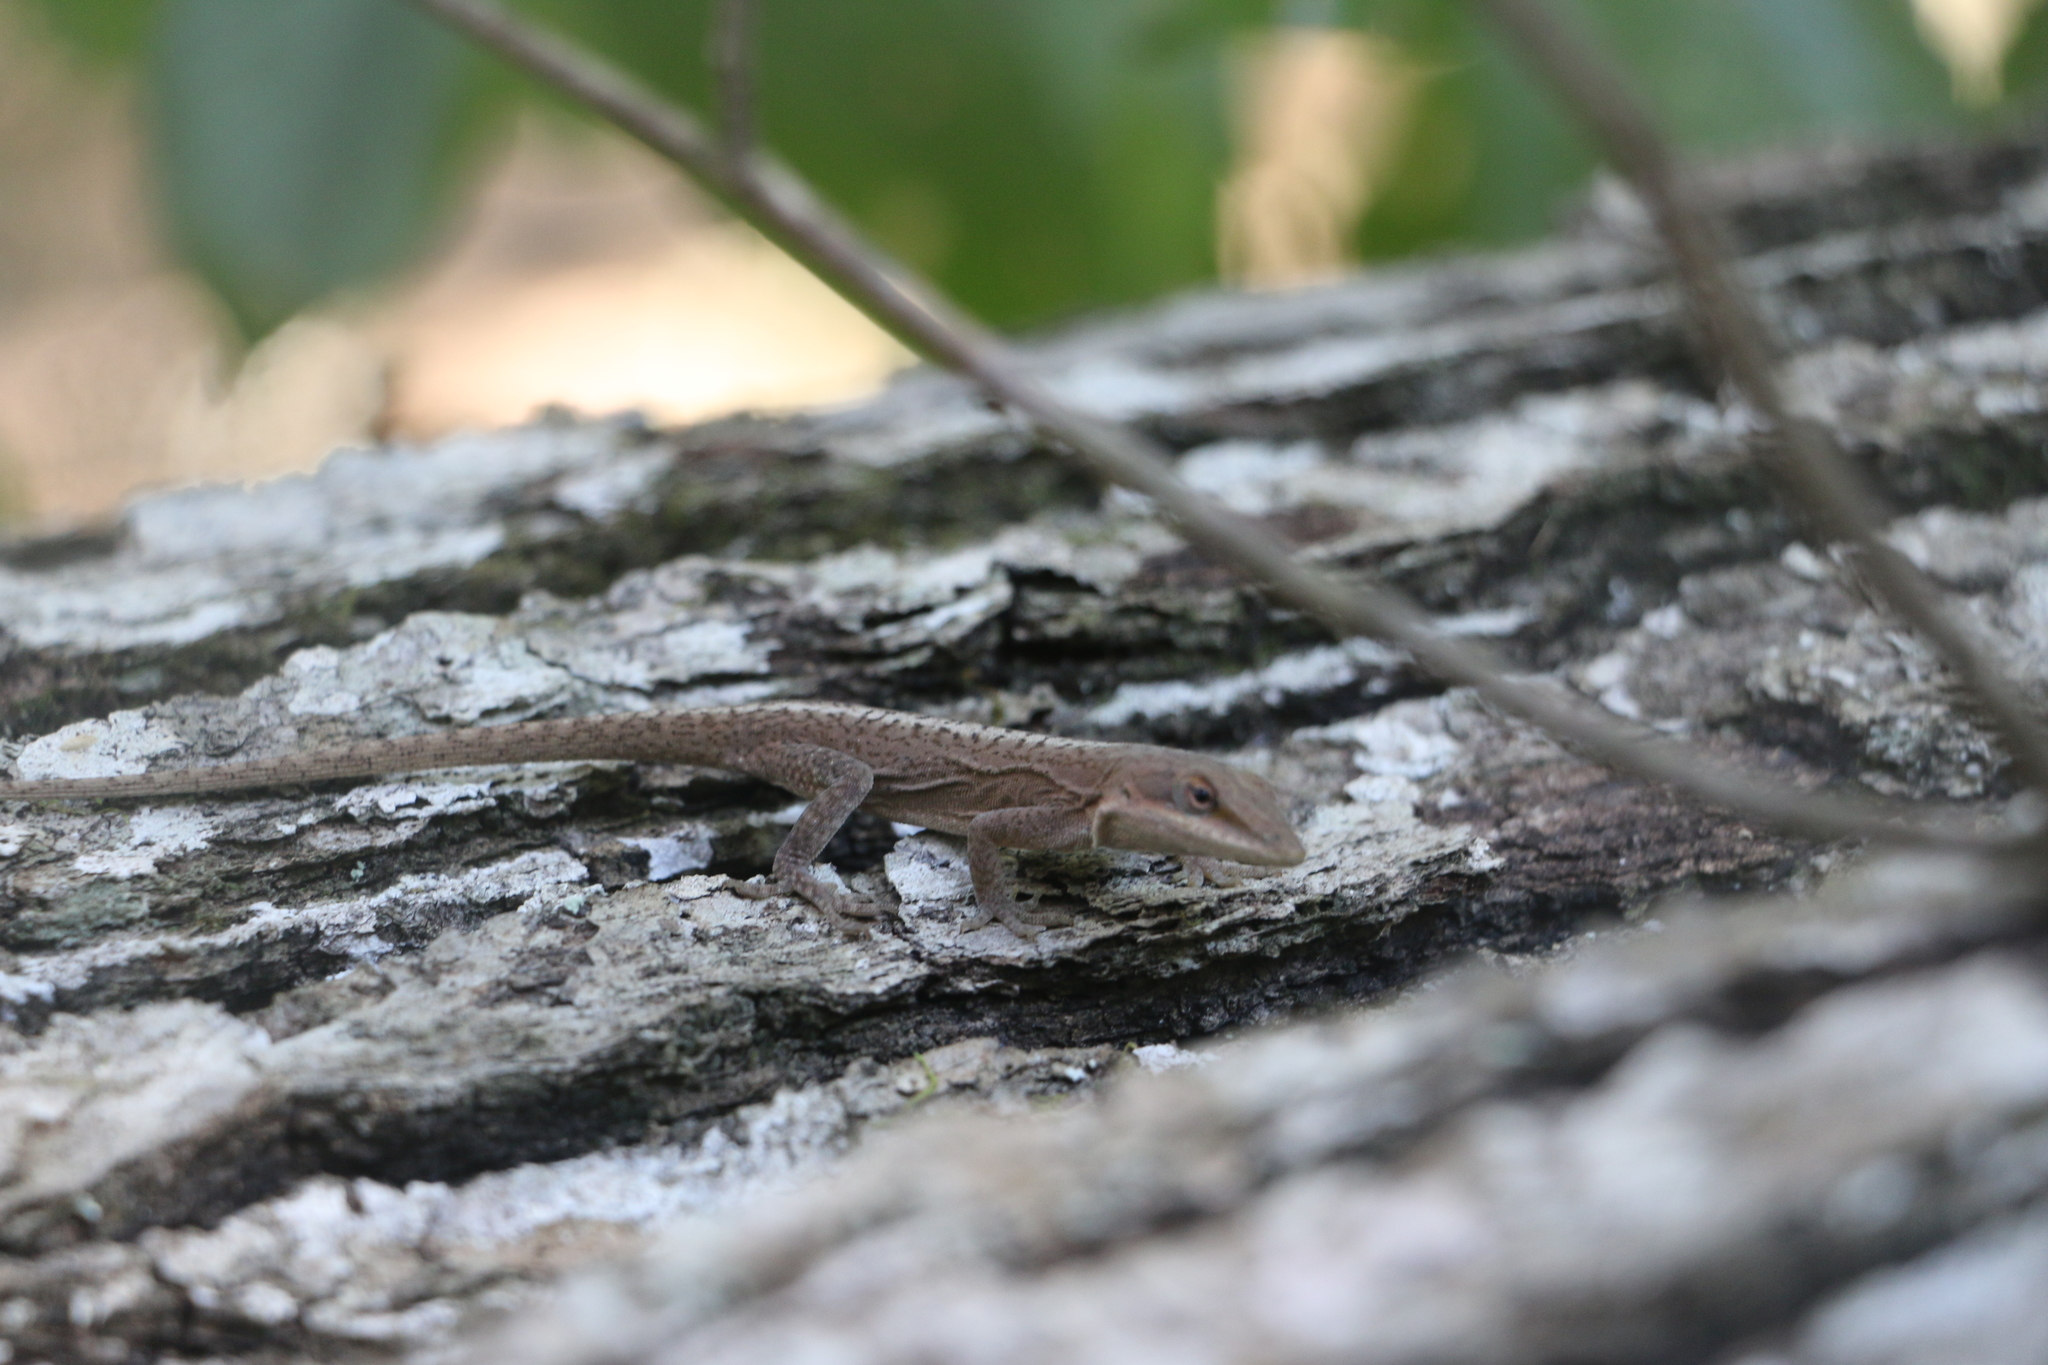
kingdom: Animalia
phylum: Chordata
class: Squamata
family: Dactyloidae
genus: Anolis
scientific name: Anolis carolinensis
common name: Green anole
